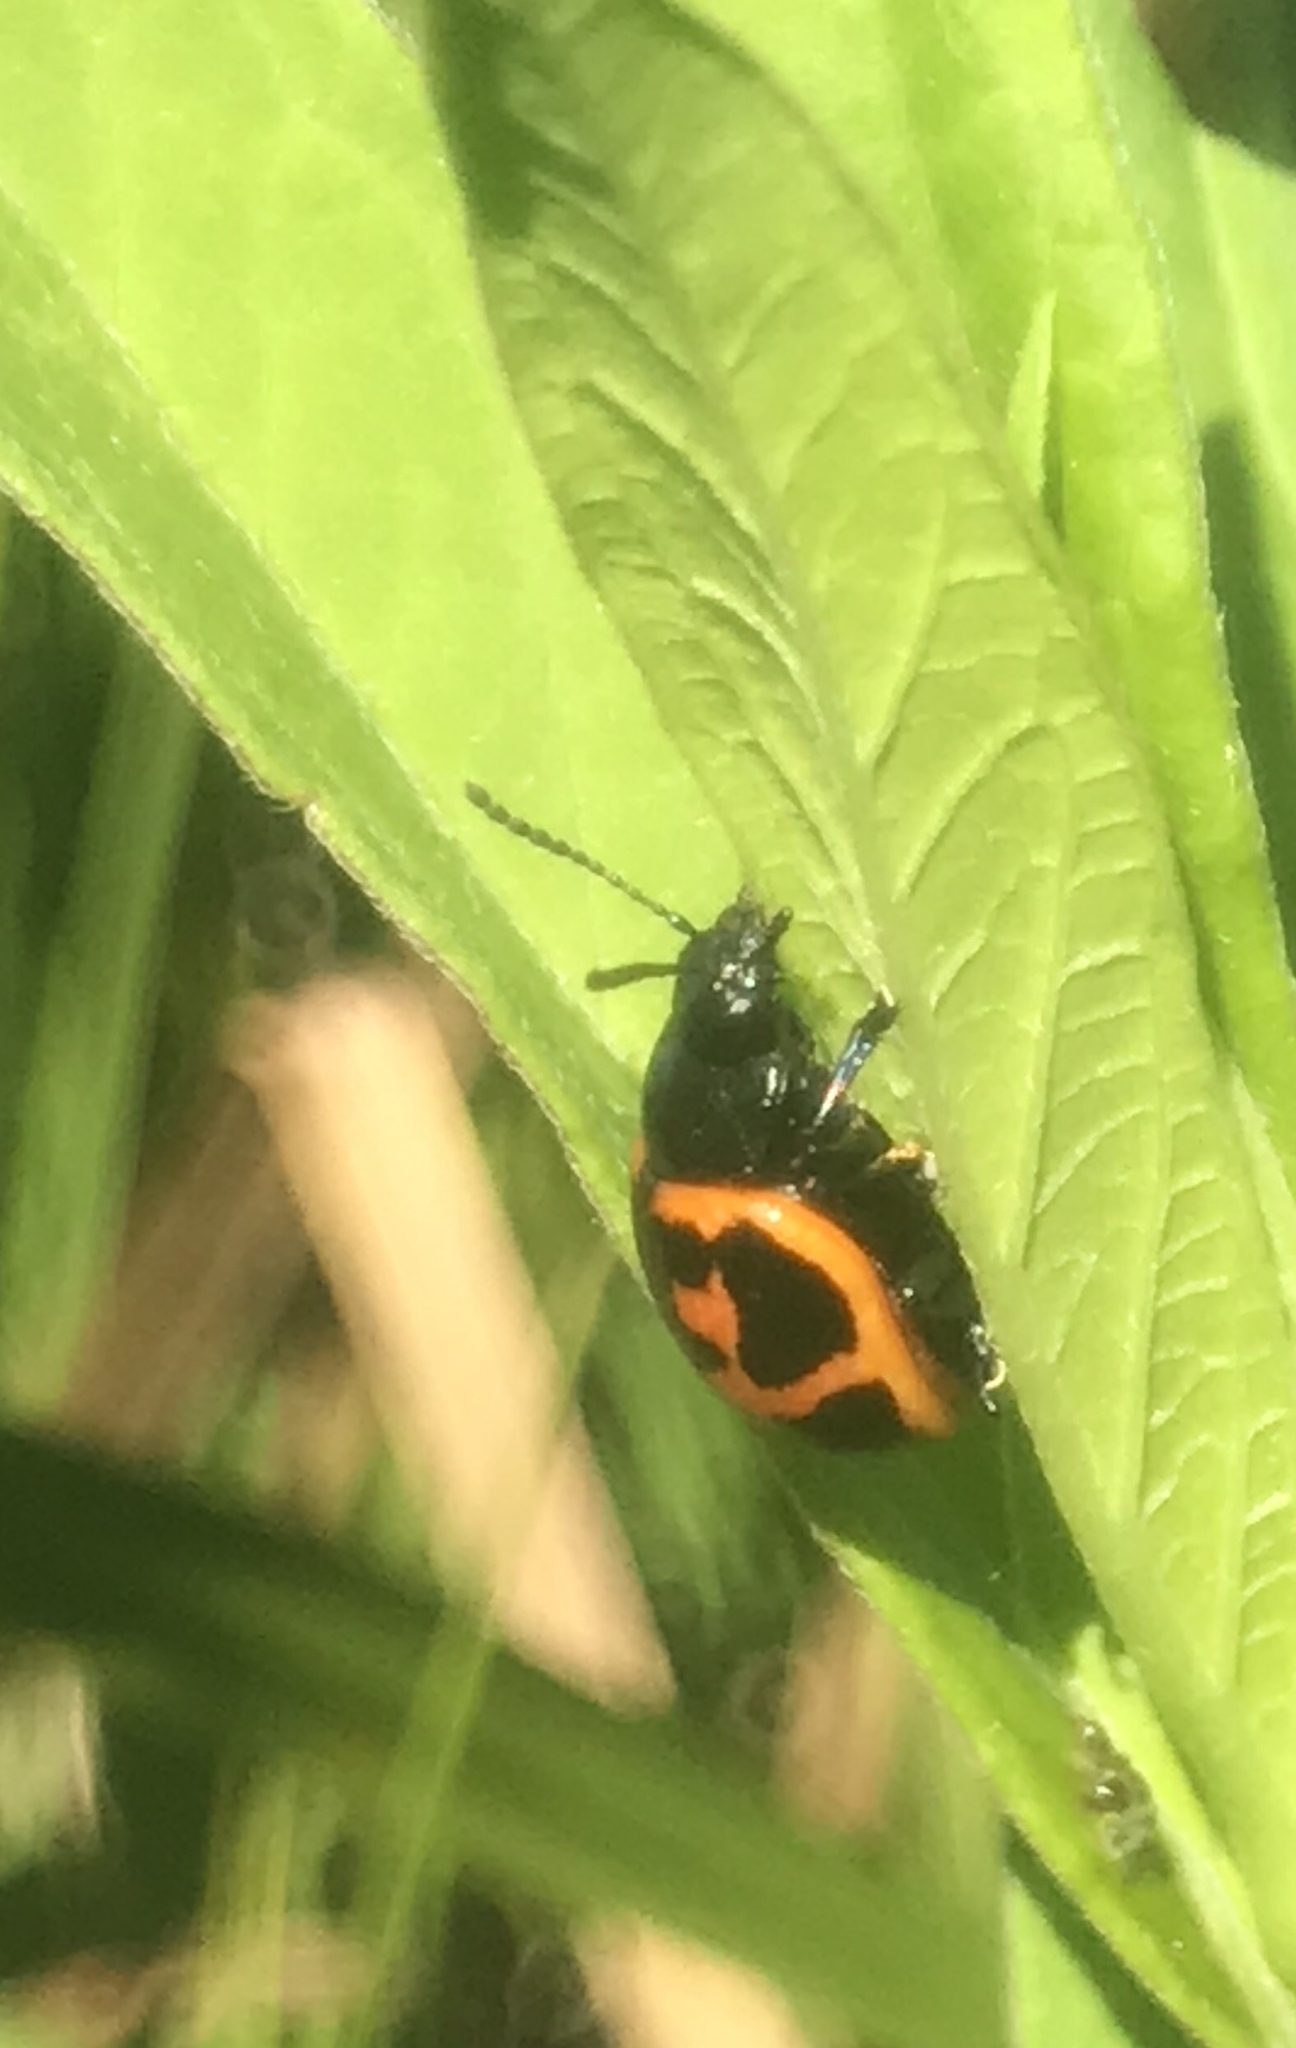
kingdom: Animalia
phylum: Arthropoda
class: Insecta
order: Coleoptera
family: Chrysomelidae
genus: Labidomera
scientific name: Labidomera clivicollis
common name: Swamp milkweed leaf beetle
